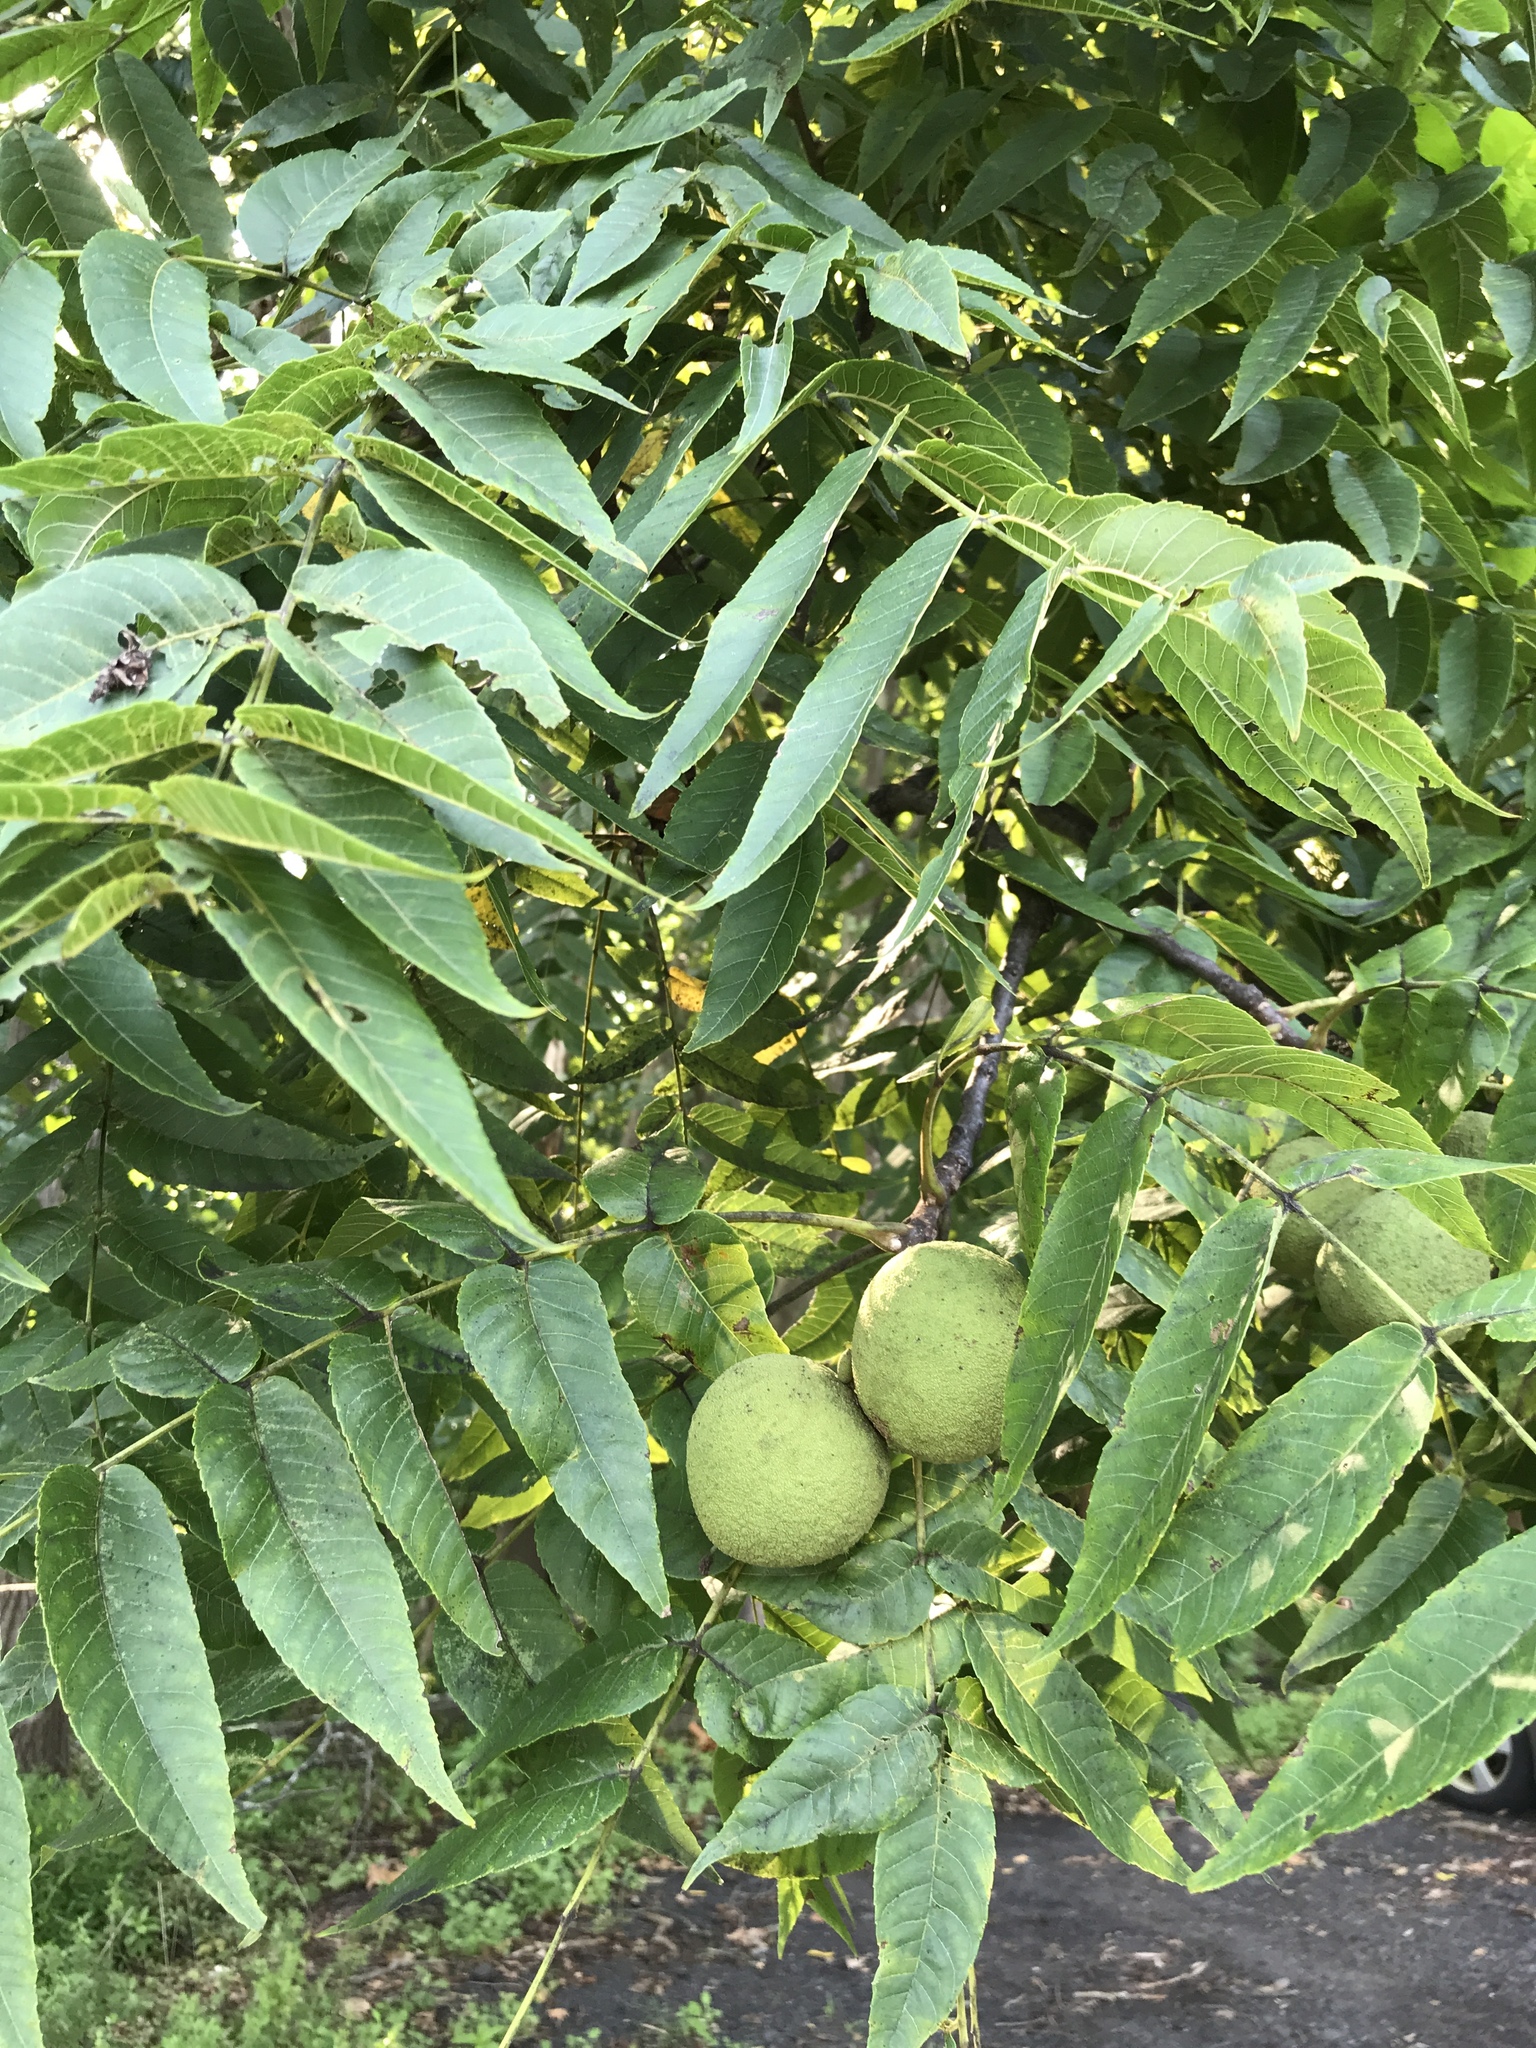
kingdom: Plantae
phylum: Tracheophyta
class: Magnoliopsida
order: Fagales
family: Juglandaceae
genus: Juglans
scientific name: Juglans nigra
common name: Black walnut
